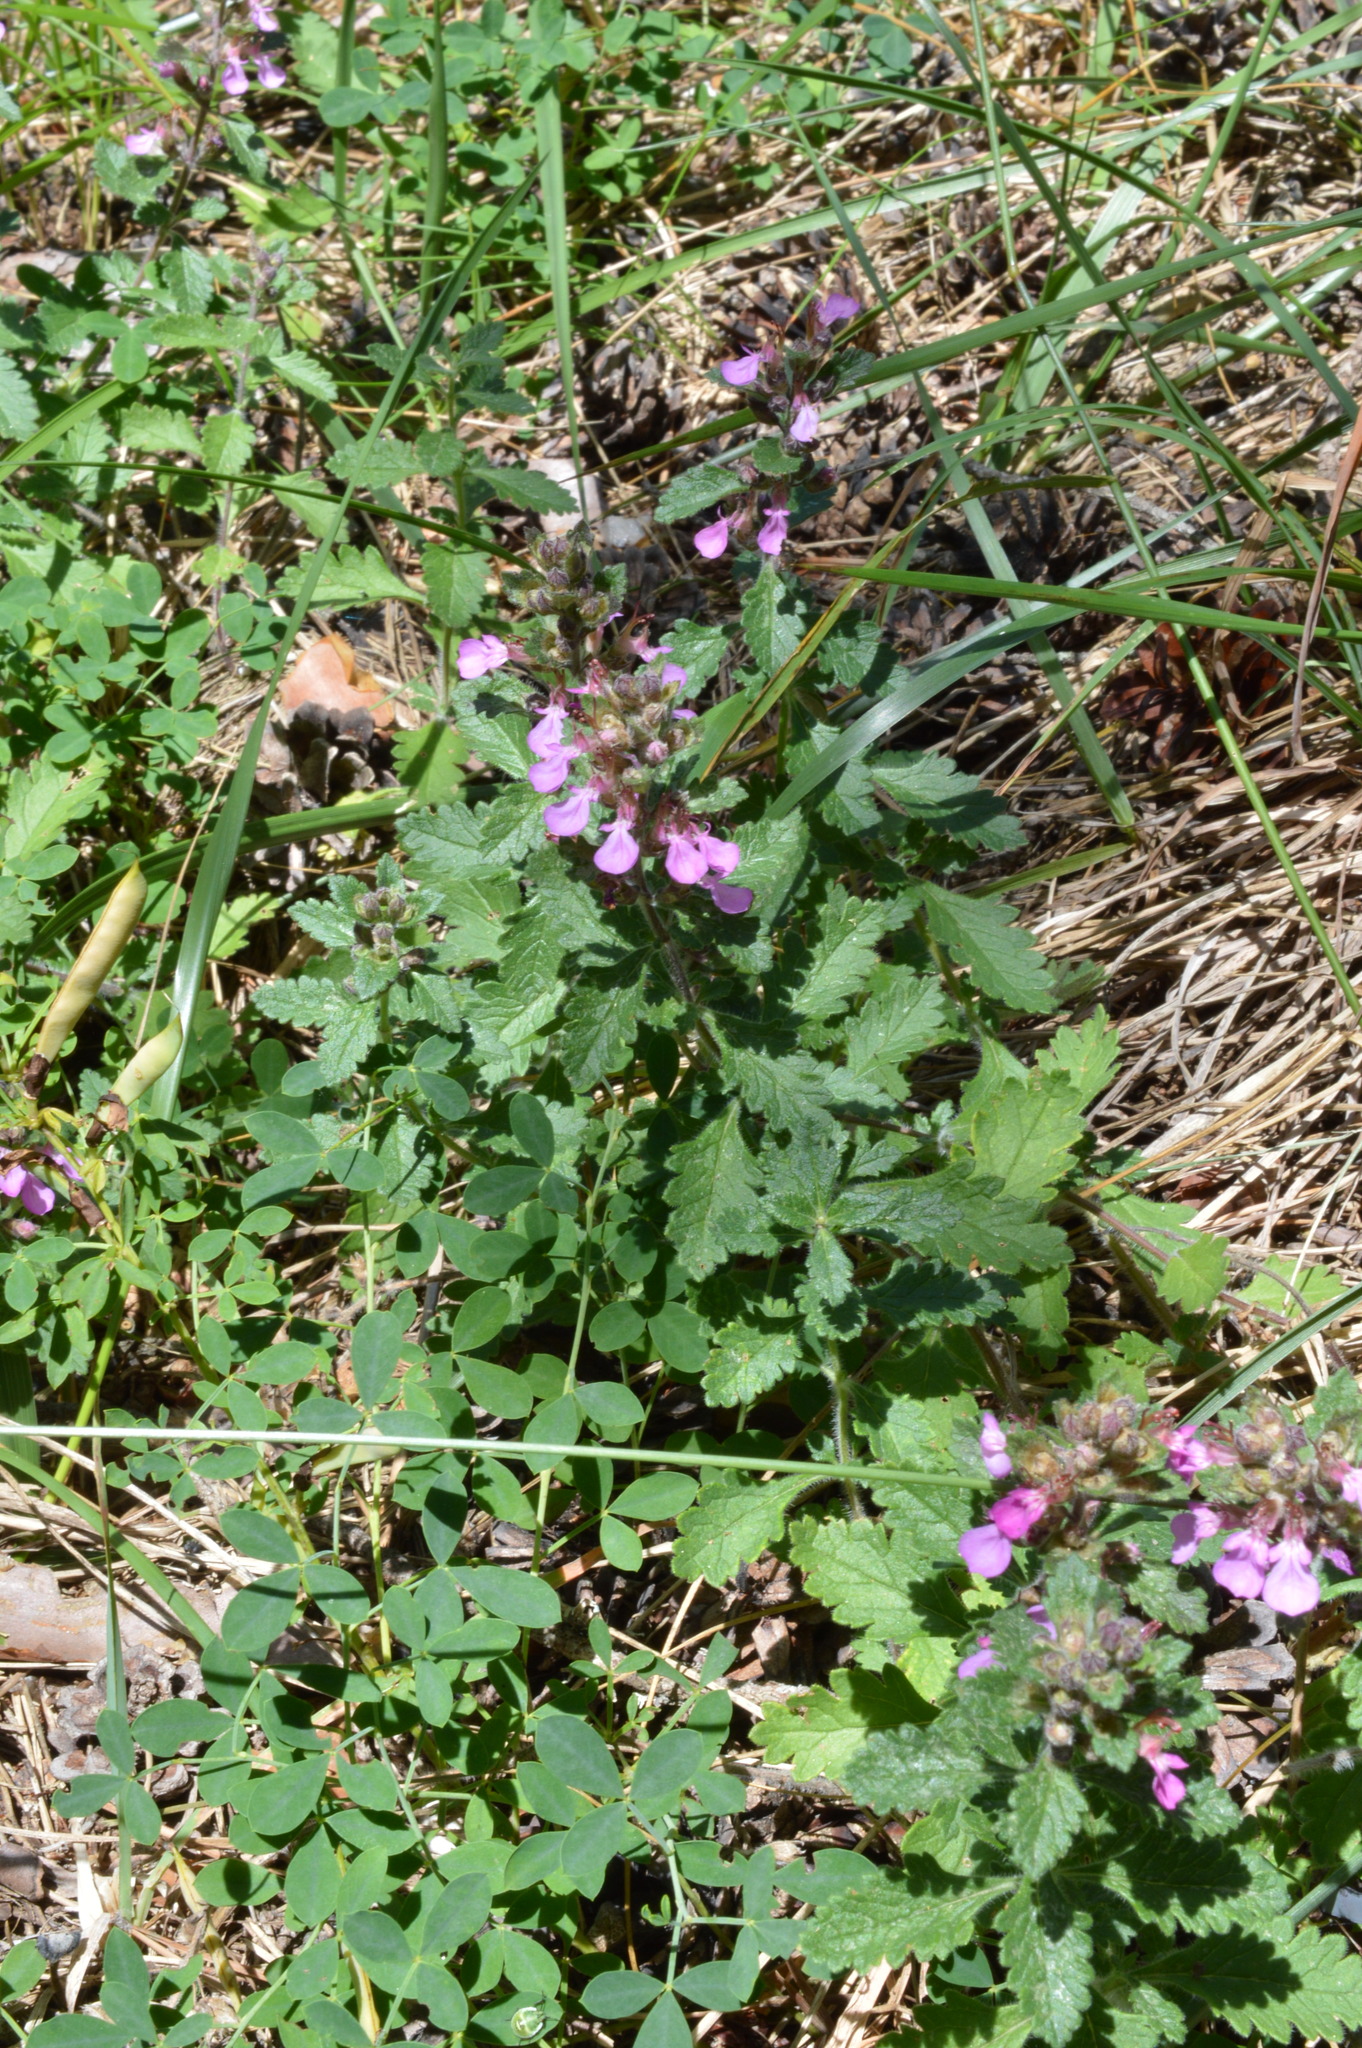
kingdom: Plantae
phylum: Tracheophyta
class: Magnoliopsida
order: Lamiales
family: Lamiaceae
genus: Teucrium
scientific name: Teucrium chamaedrys
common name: Wall germander
